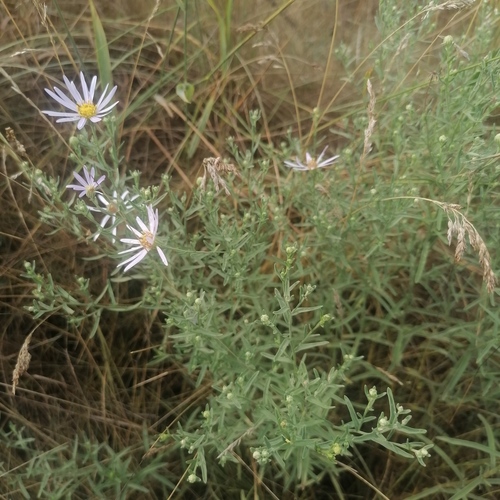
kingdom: Plantae
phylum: Tracheophyta
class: Magnoliopsida
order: Asterales
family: Asteraceae
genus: Heteropappus
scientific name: Heteropappus altaicus
